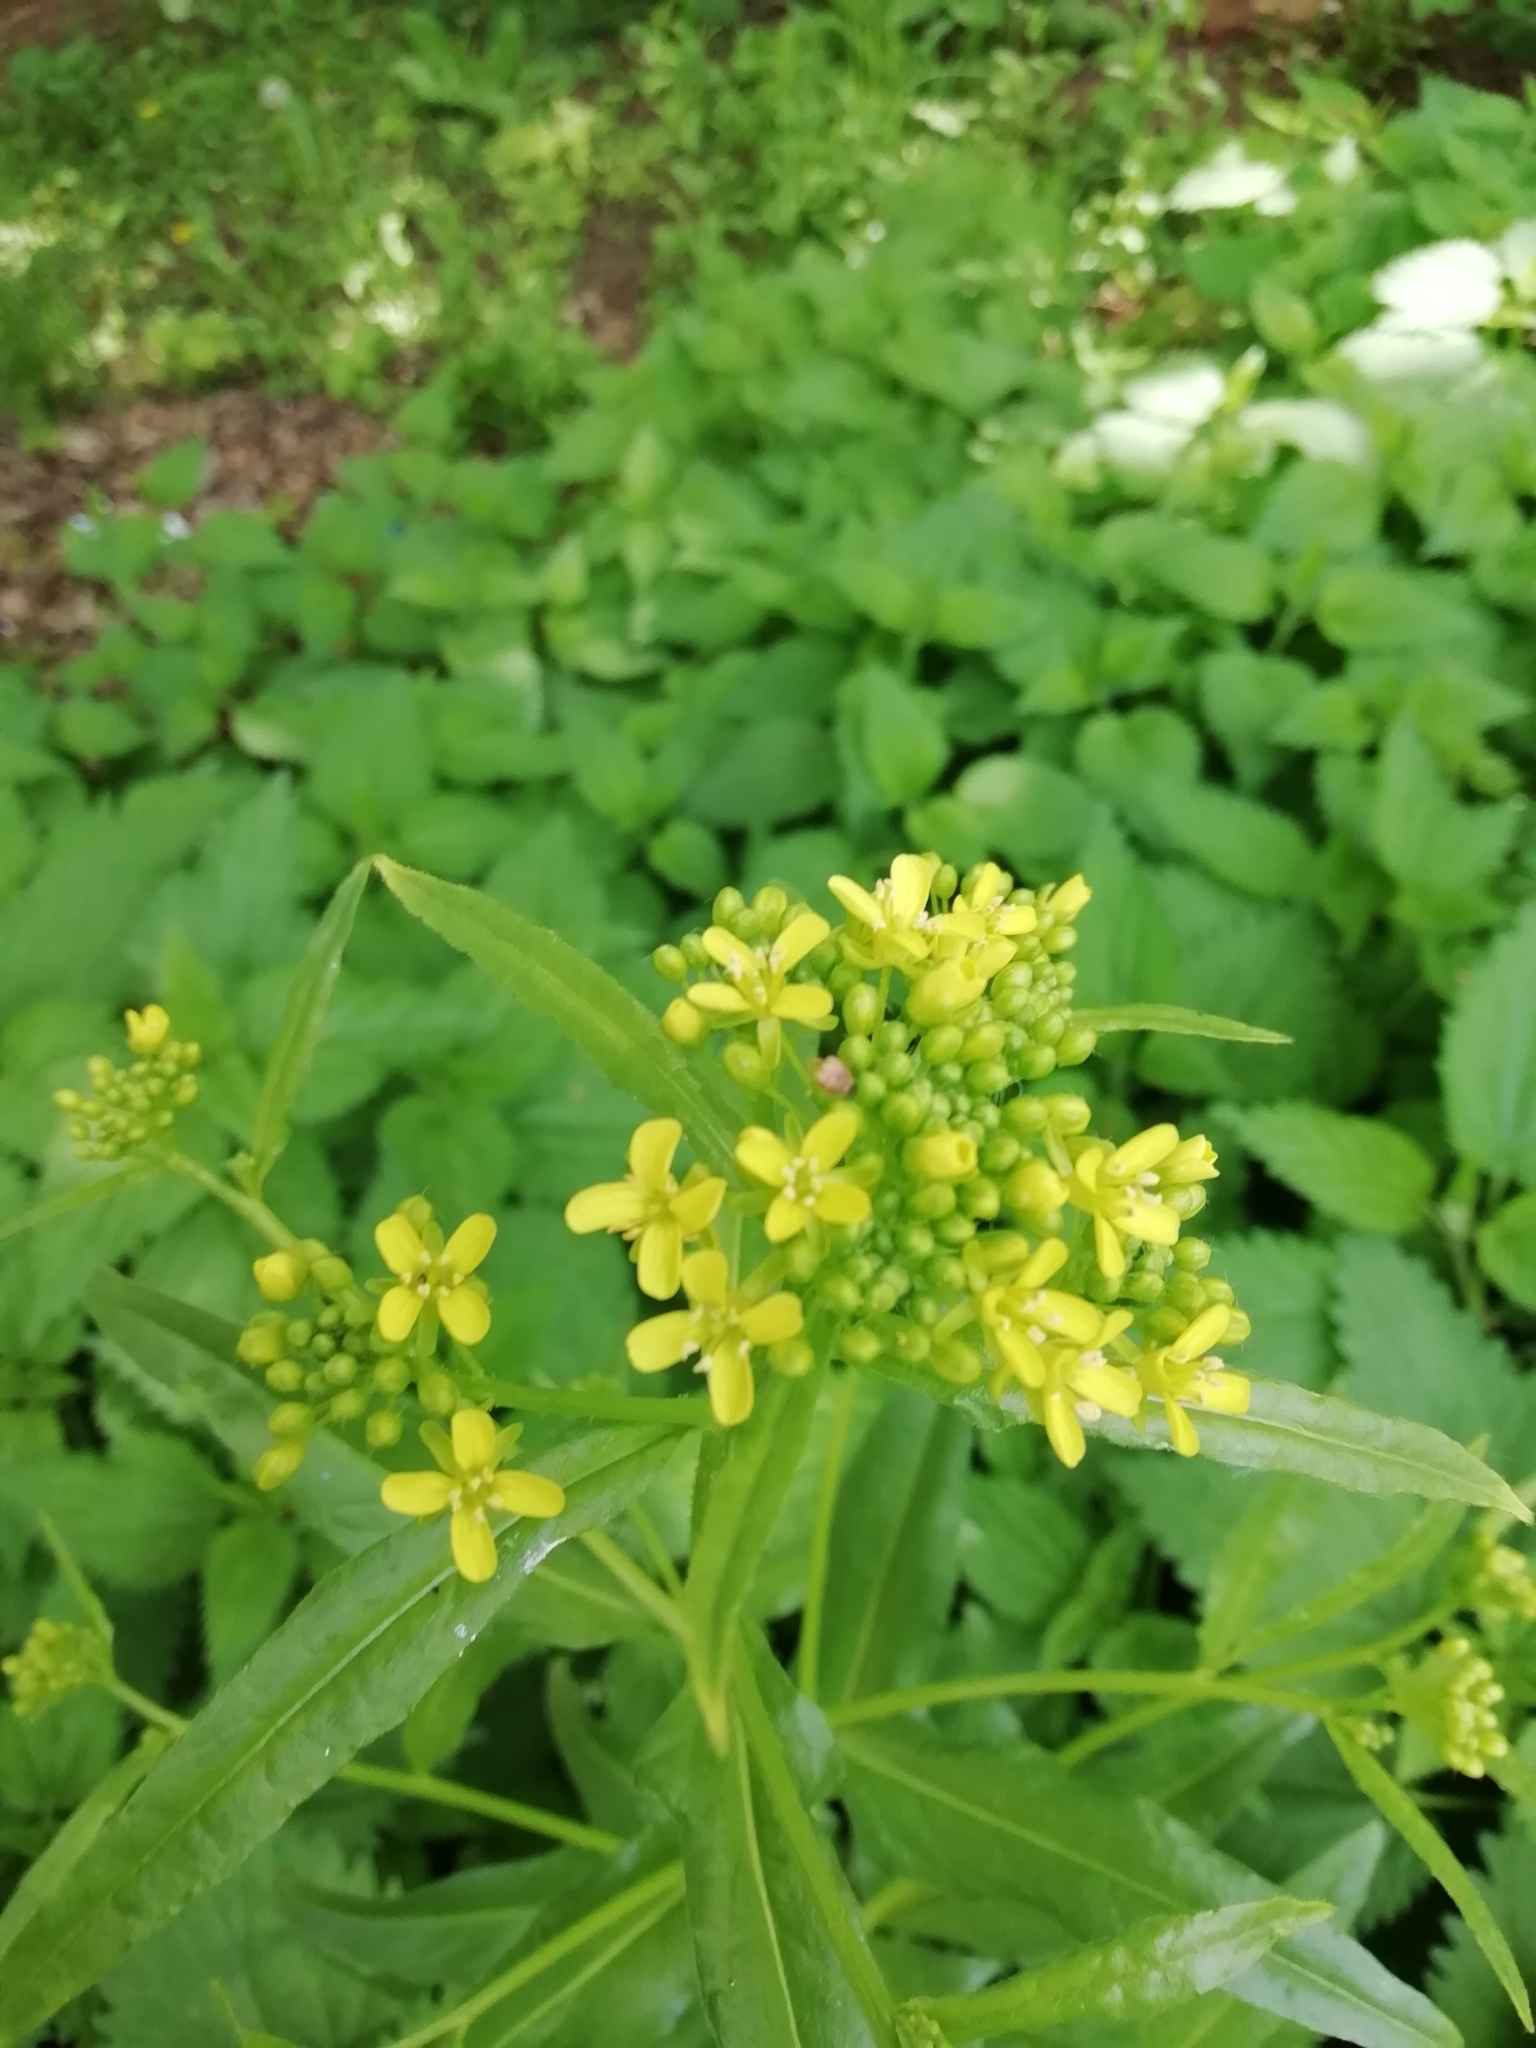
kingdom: Plantae
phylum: Tracheophyta
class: Magnoliopsida
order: Brassicales
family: Brassicaceae
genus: Bunias
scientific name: Bunias orientalis
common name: Warty-cabbage
